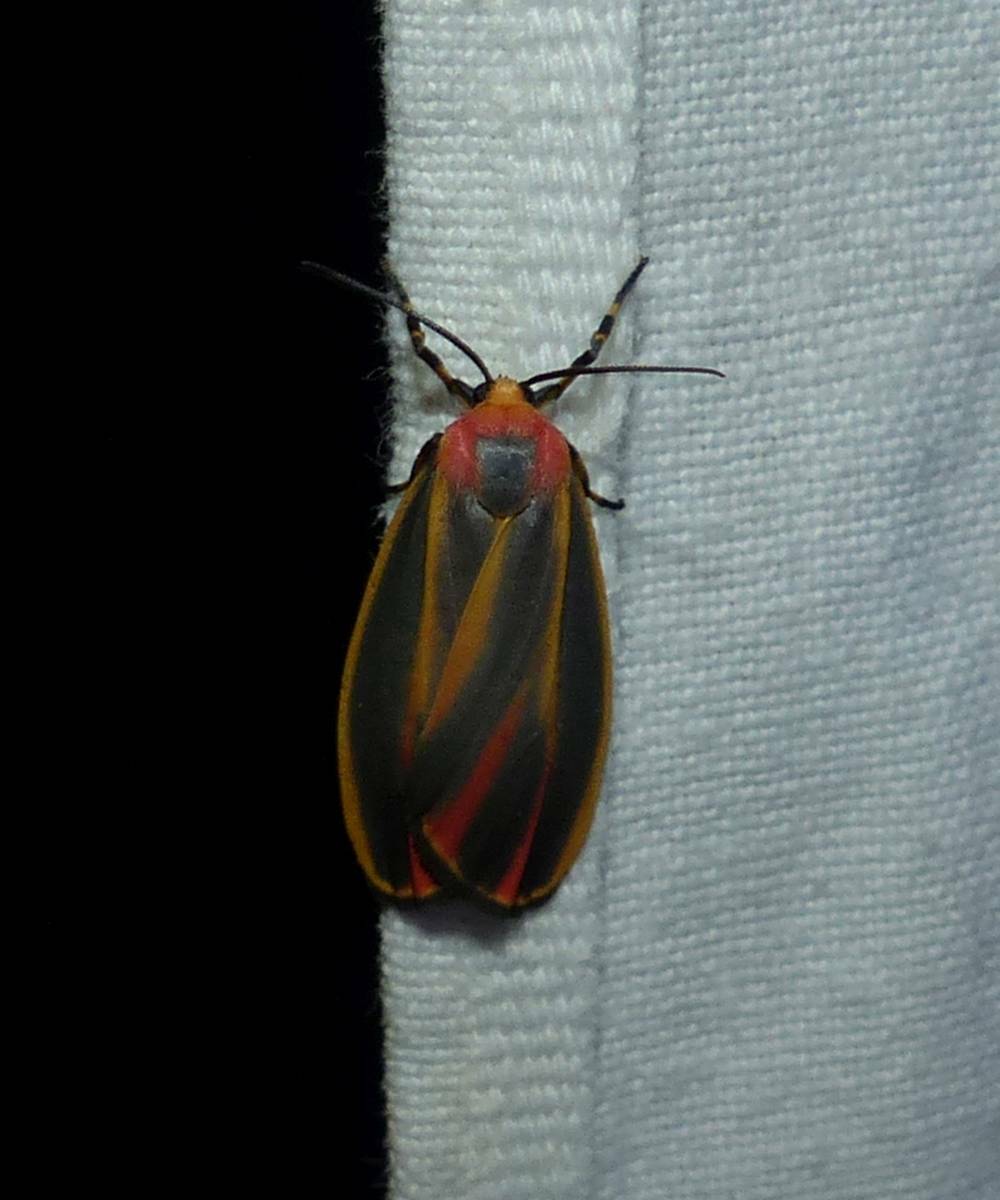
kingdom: Animalia
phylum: Arthropoda
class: Insecta
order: Lepidoptera
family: Erebidae
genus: Hypoprepia
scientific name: Hypoprepia fucosa
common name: Painted lichen moth
